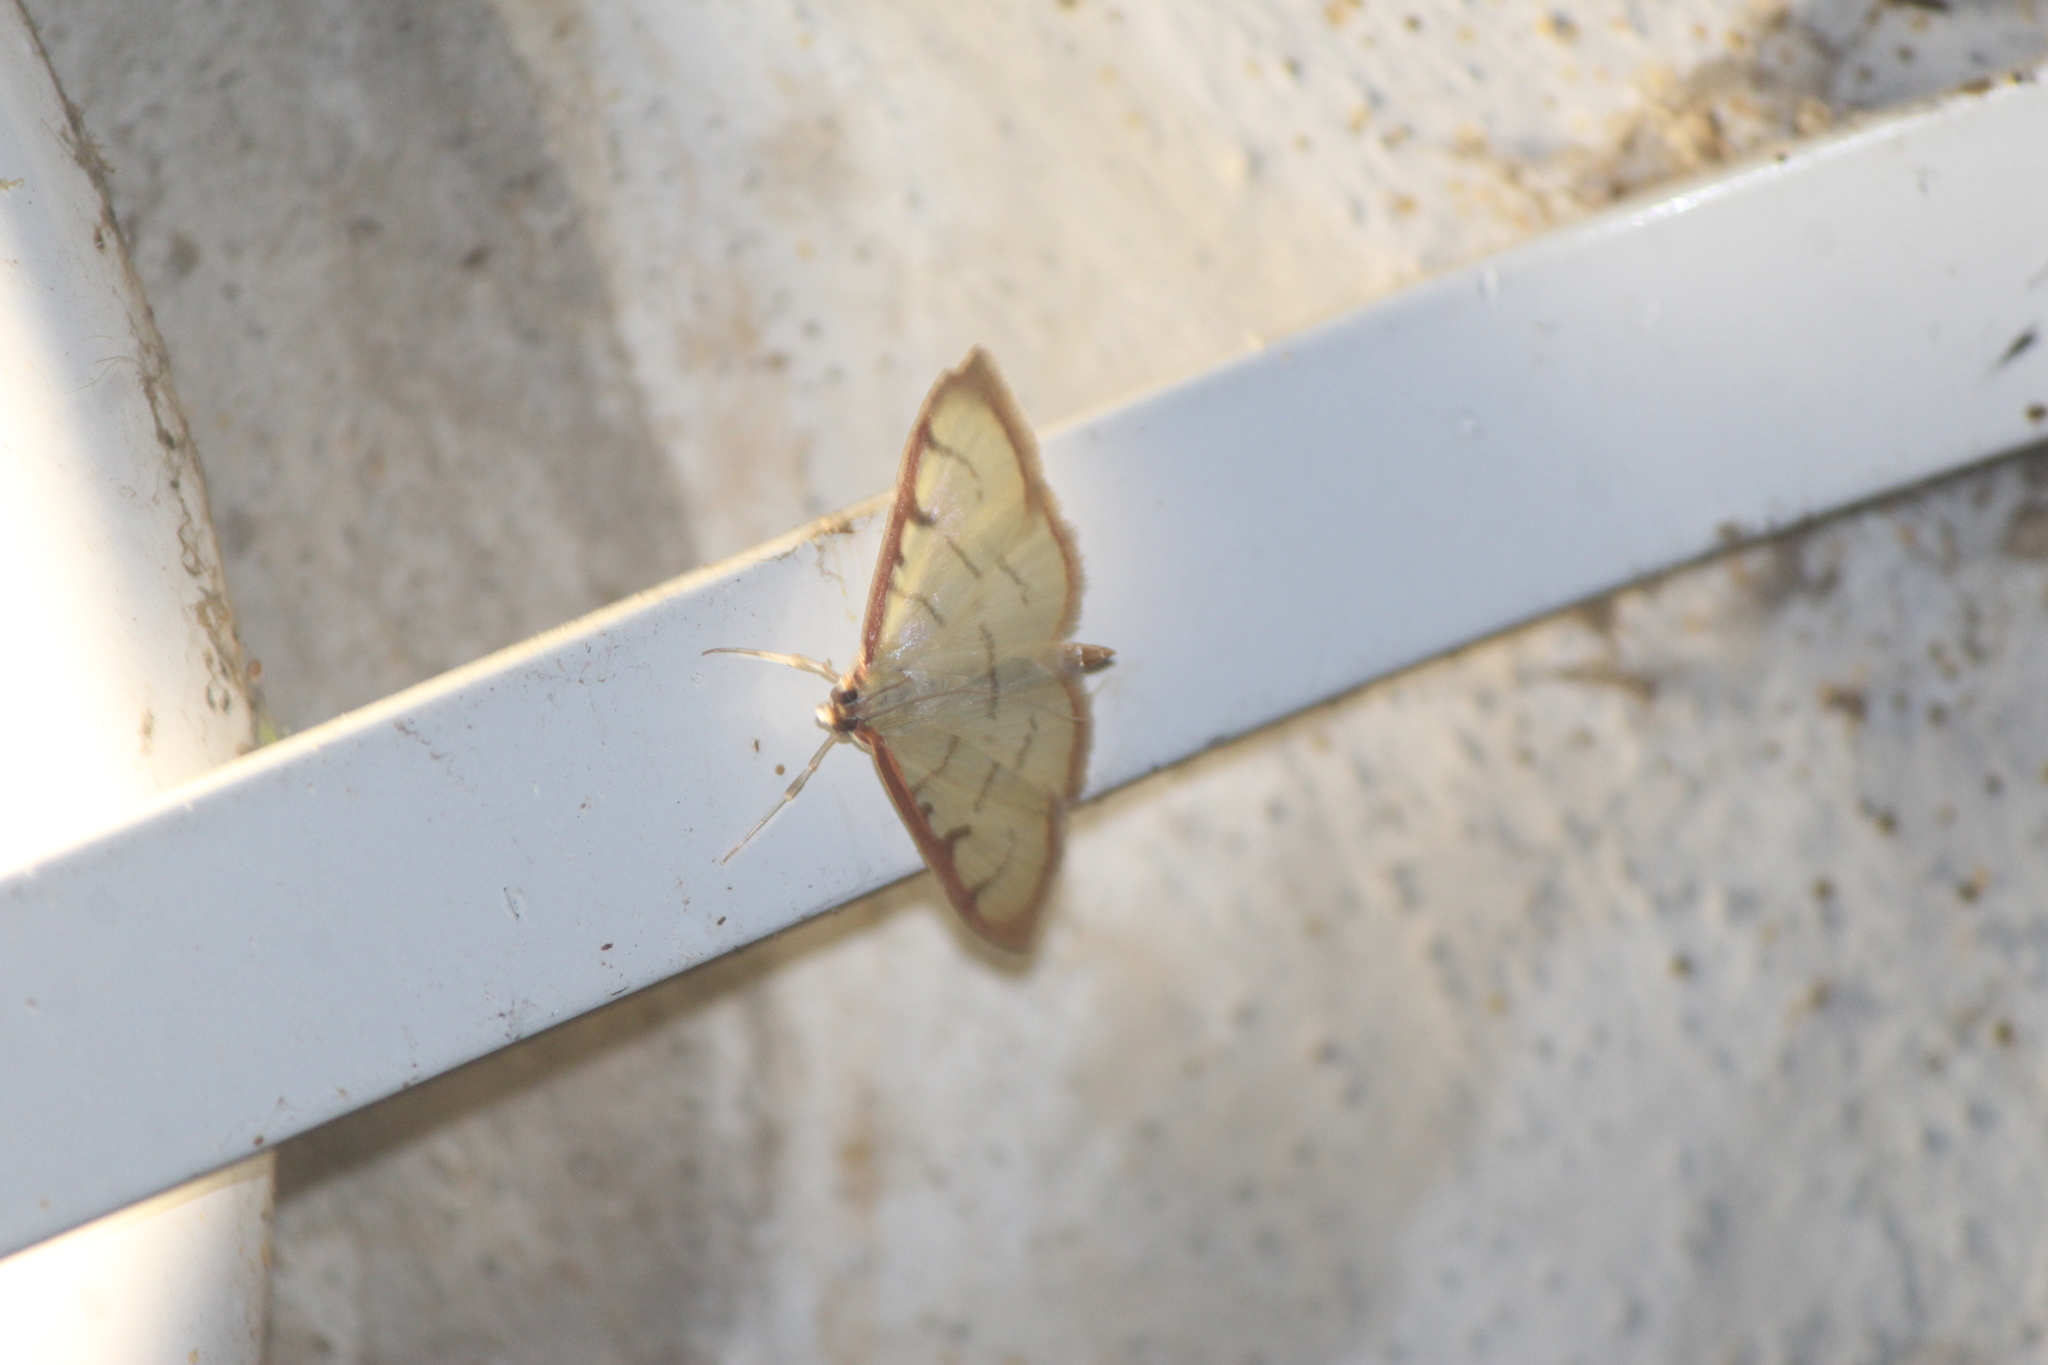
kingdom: Animalia
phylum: Arthropoda
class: Insecta
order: Lepidoptera
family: Crambidae
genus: Sarabotys
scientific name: Sarabotys
